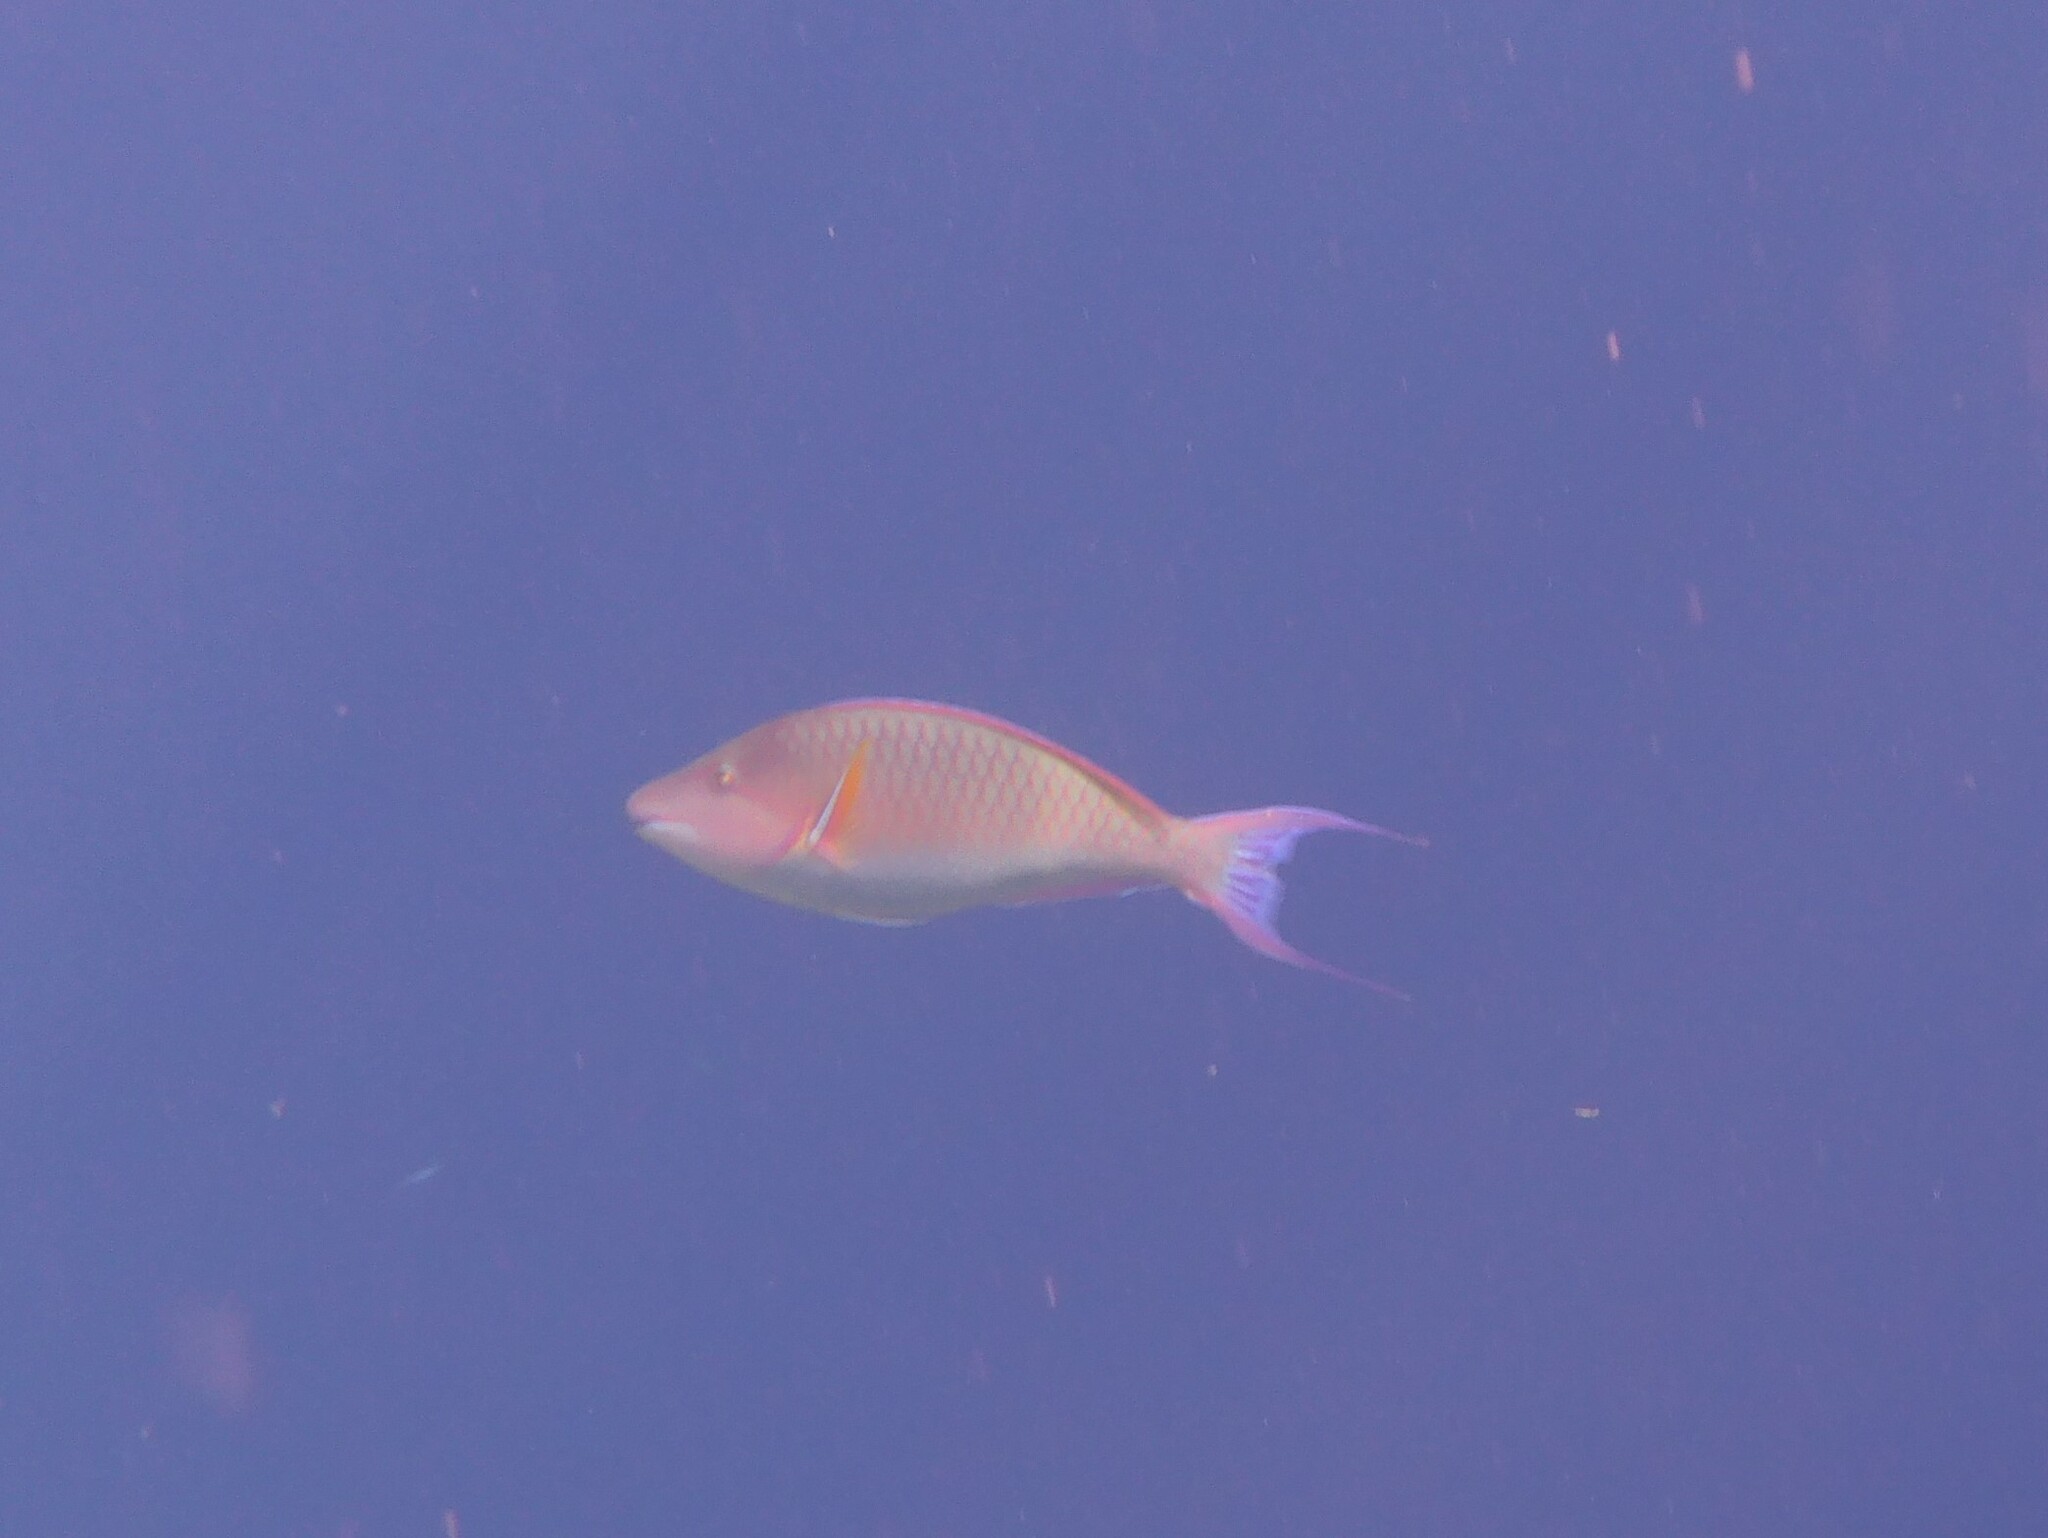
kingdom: Animalia
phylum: Chordata
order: Perciformes
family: Scaridae
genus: Hipposcarus
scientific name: Hipposcarus harid
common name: Candelamoa parrotfish
